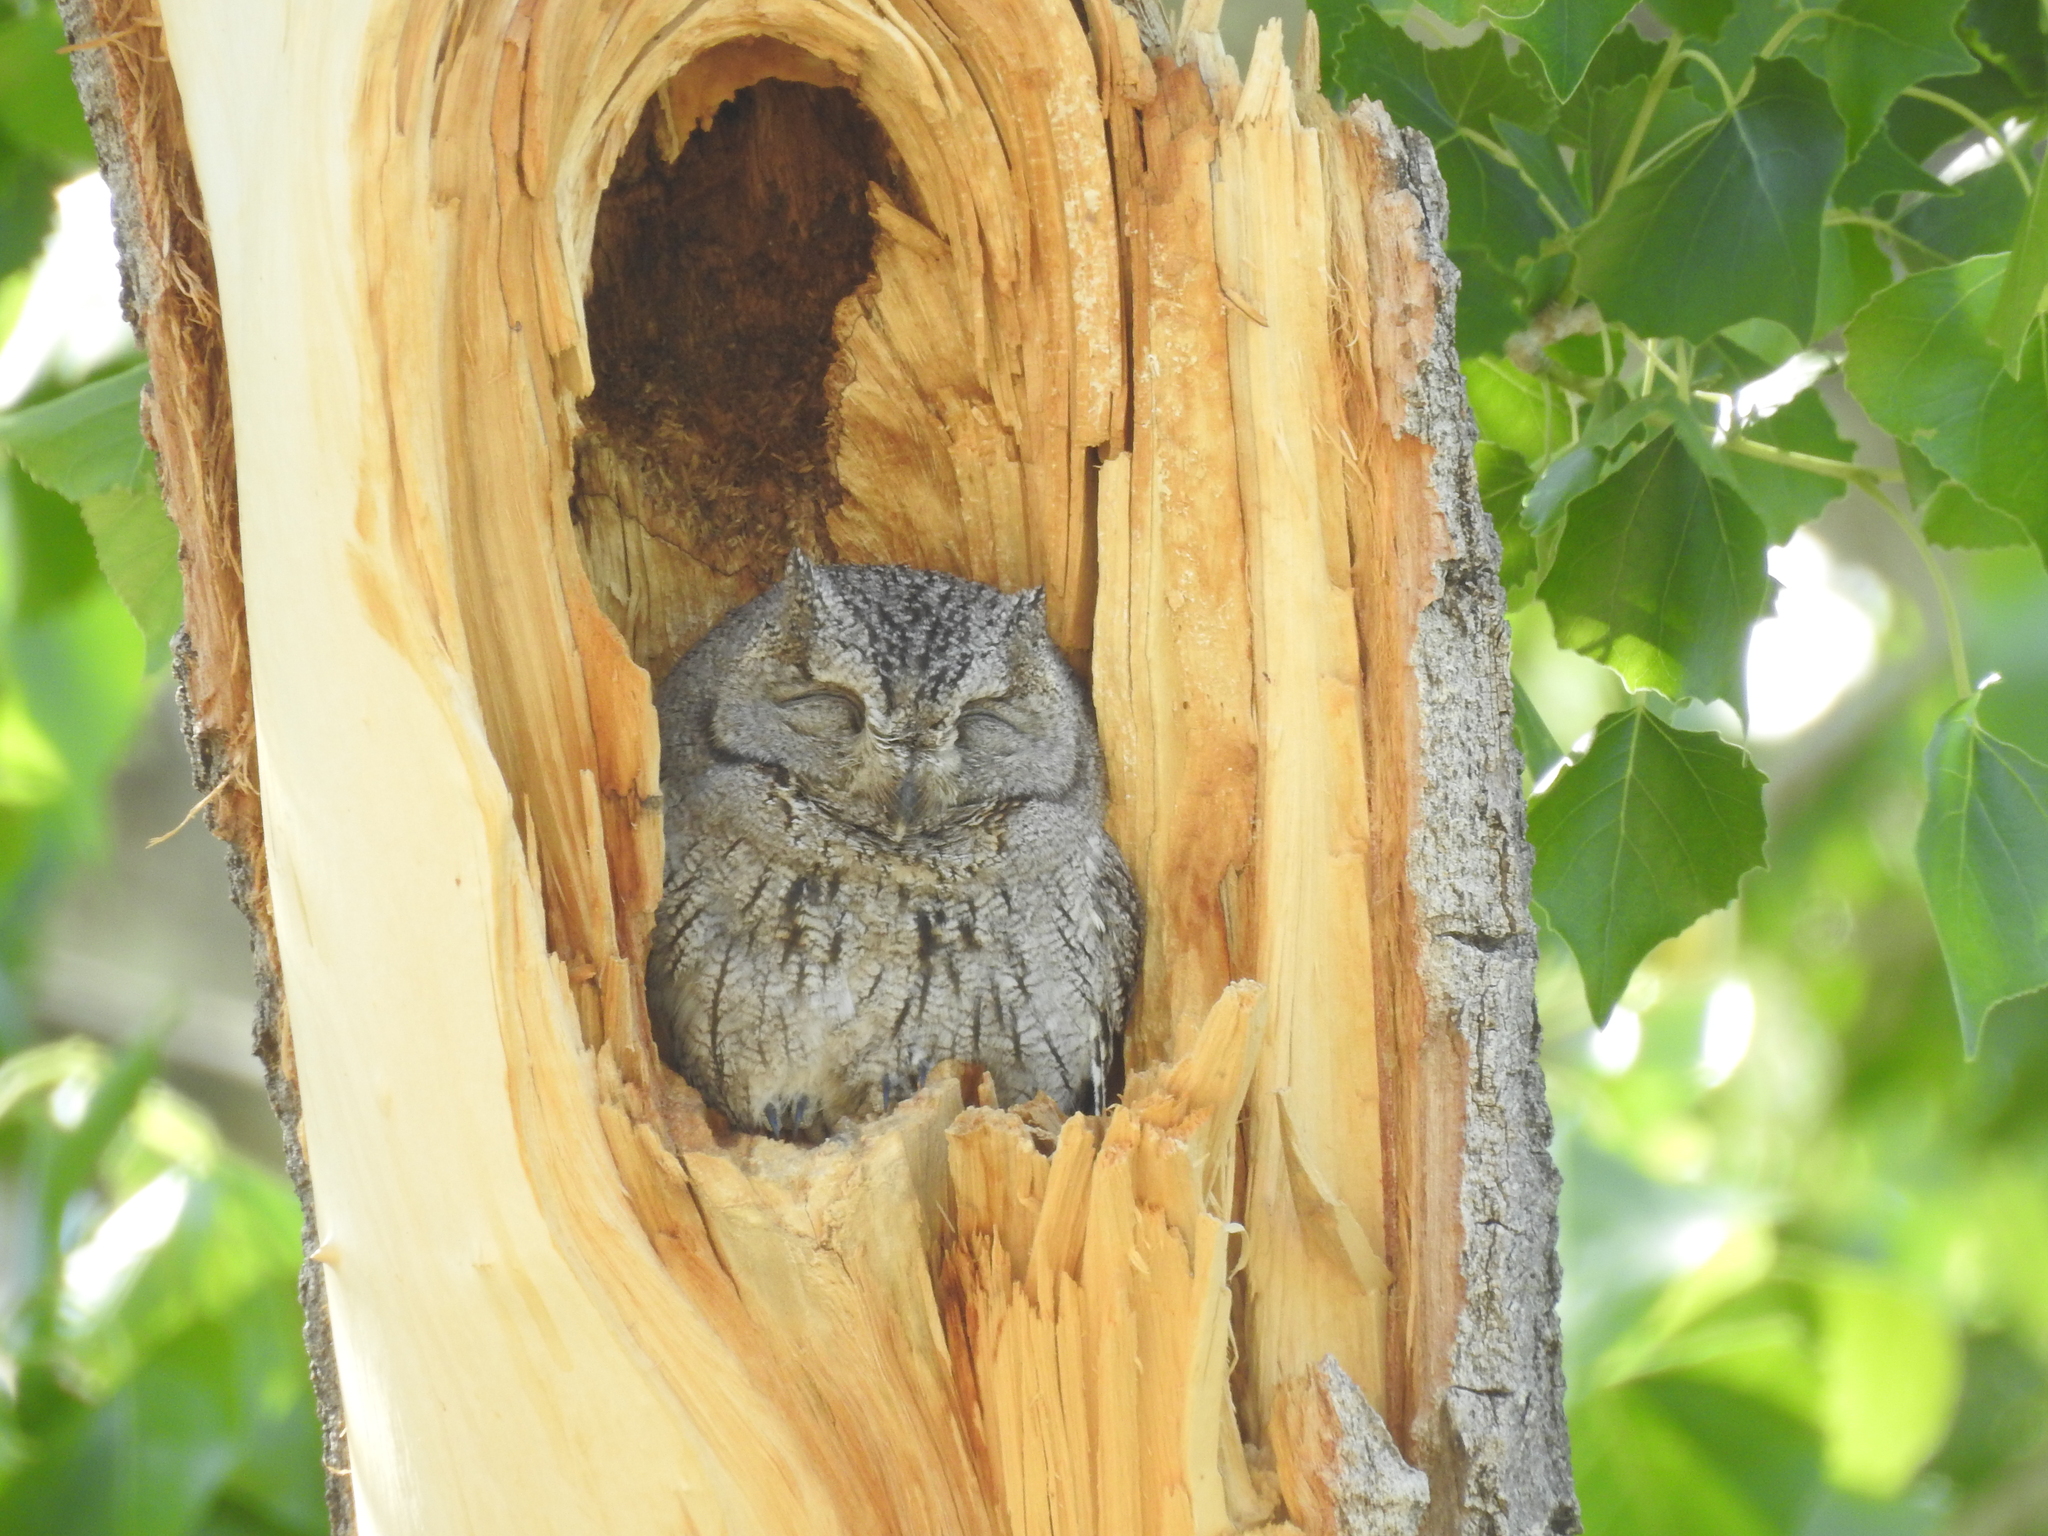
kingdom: Animalia
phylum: Chordata
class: Aves
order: Strigiformes
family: Strigidae
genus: Megascops
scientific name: Megascops kennicottii
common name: Western screech-owl
